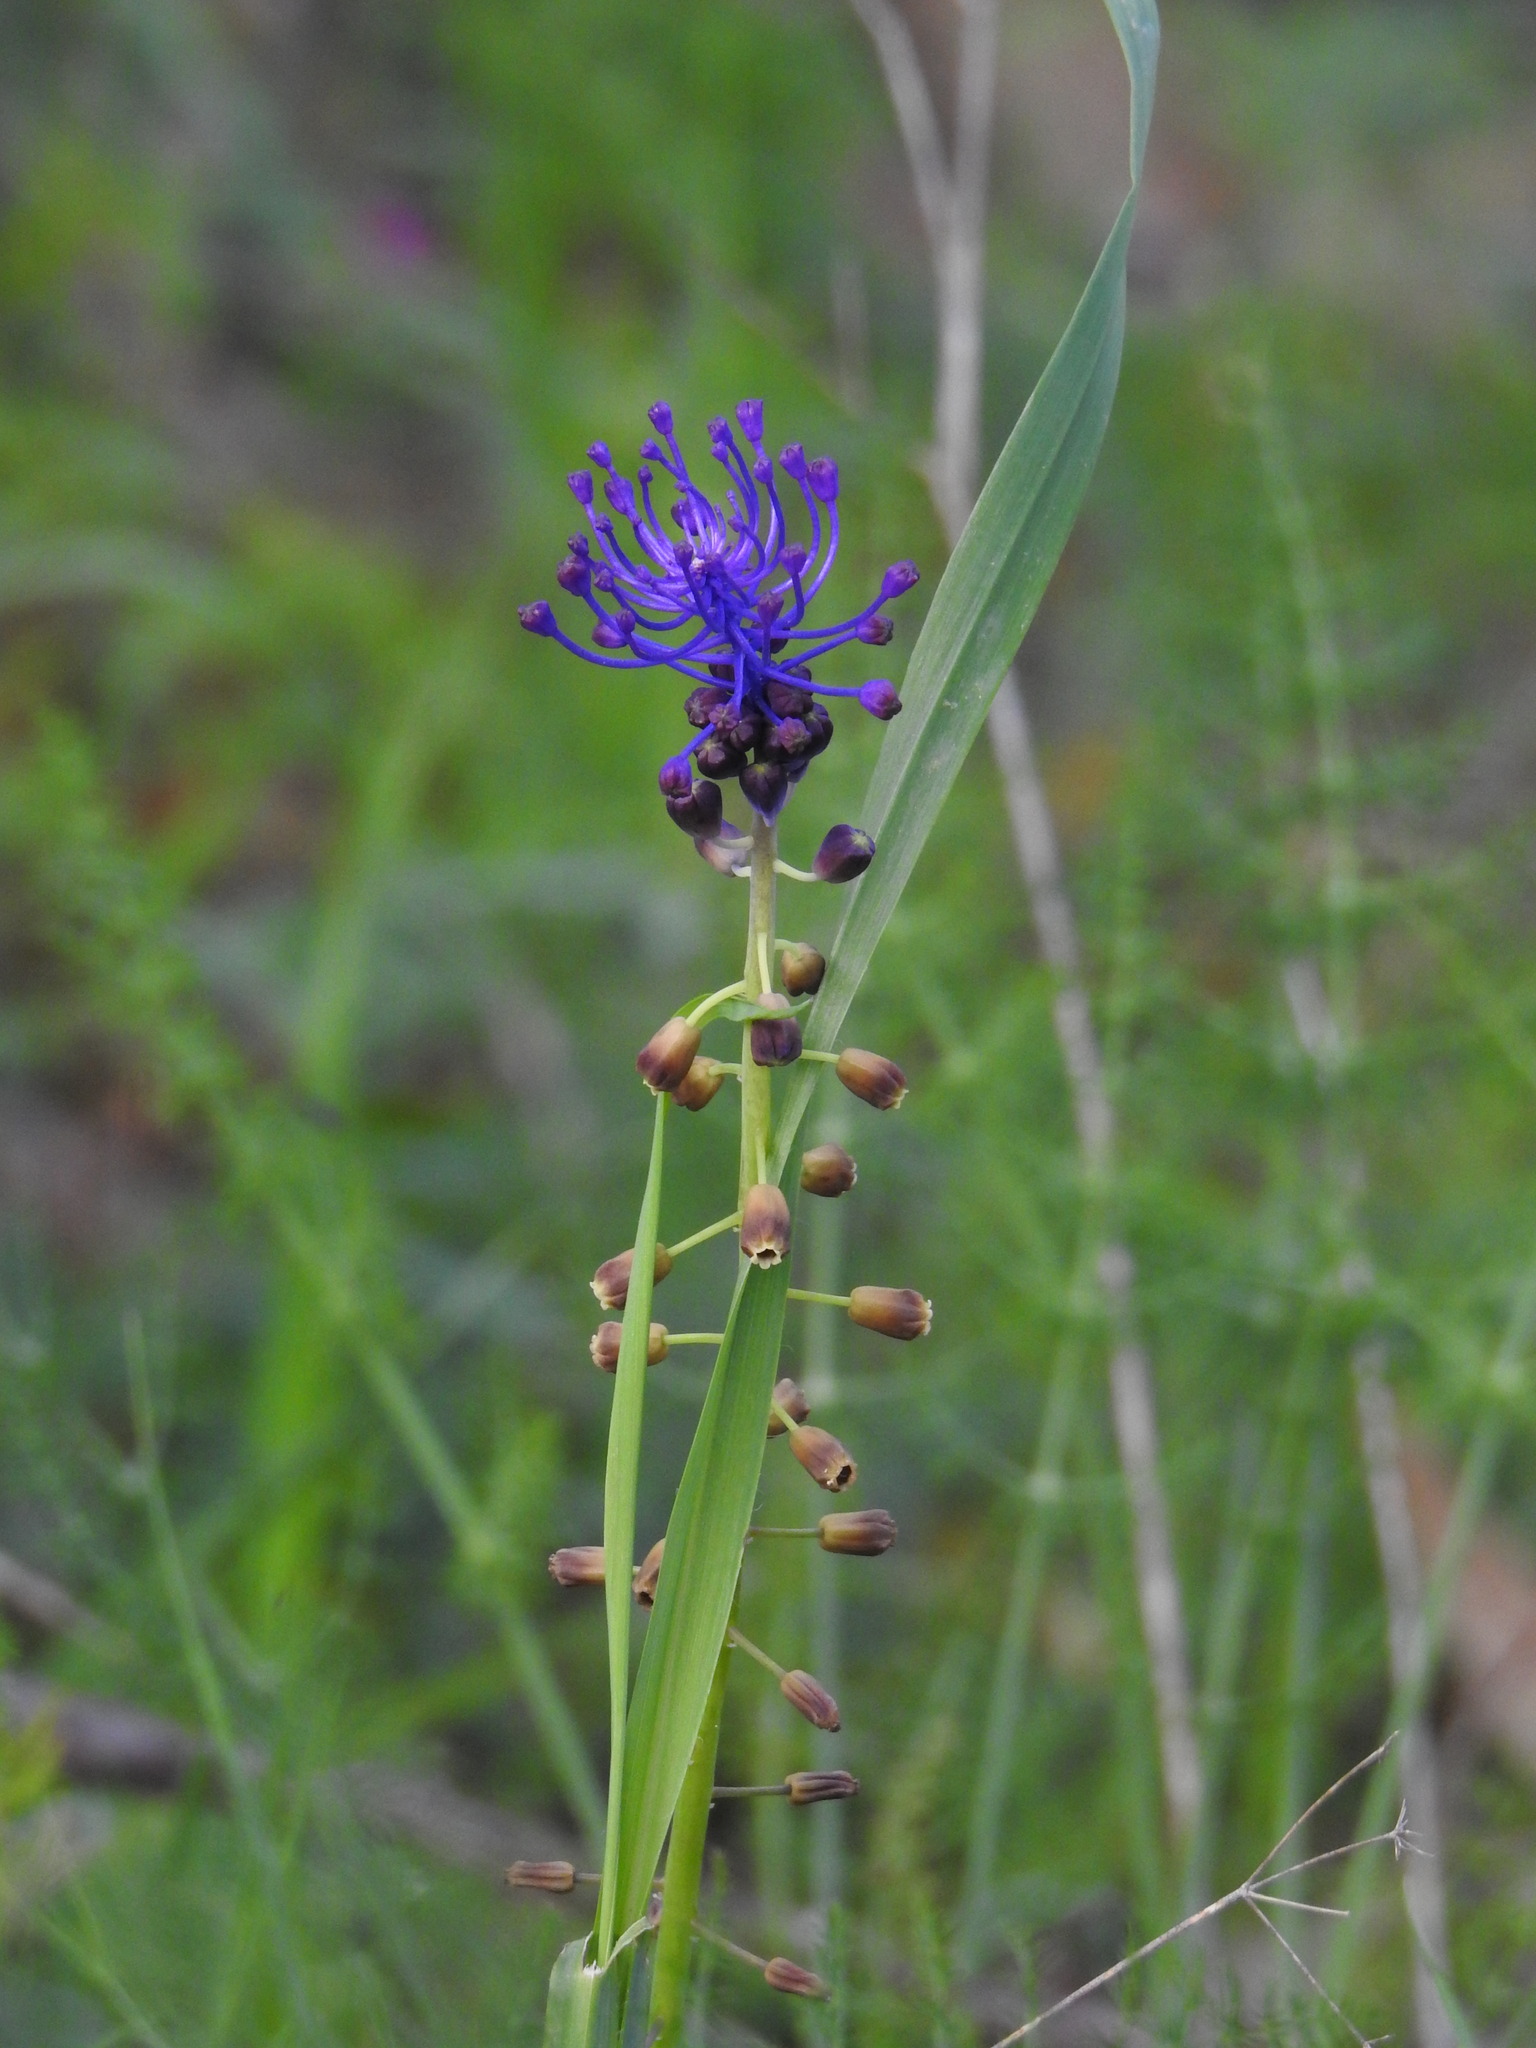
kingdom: Plantae
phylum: Tracheophyta
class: Liliopsida
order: Asparagales
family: Asparagaceae
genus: Muscari
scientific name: Muscari comosum
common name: Tassel hyacinth
